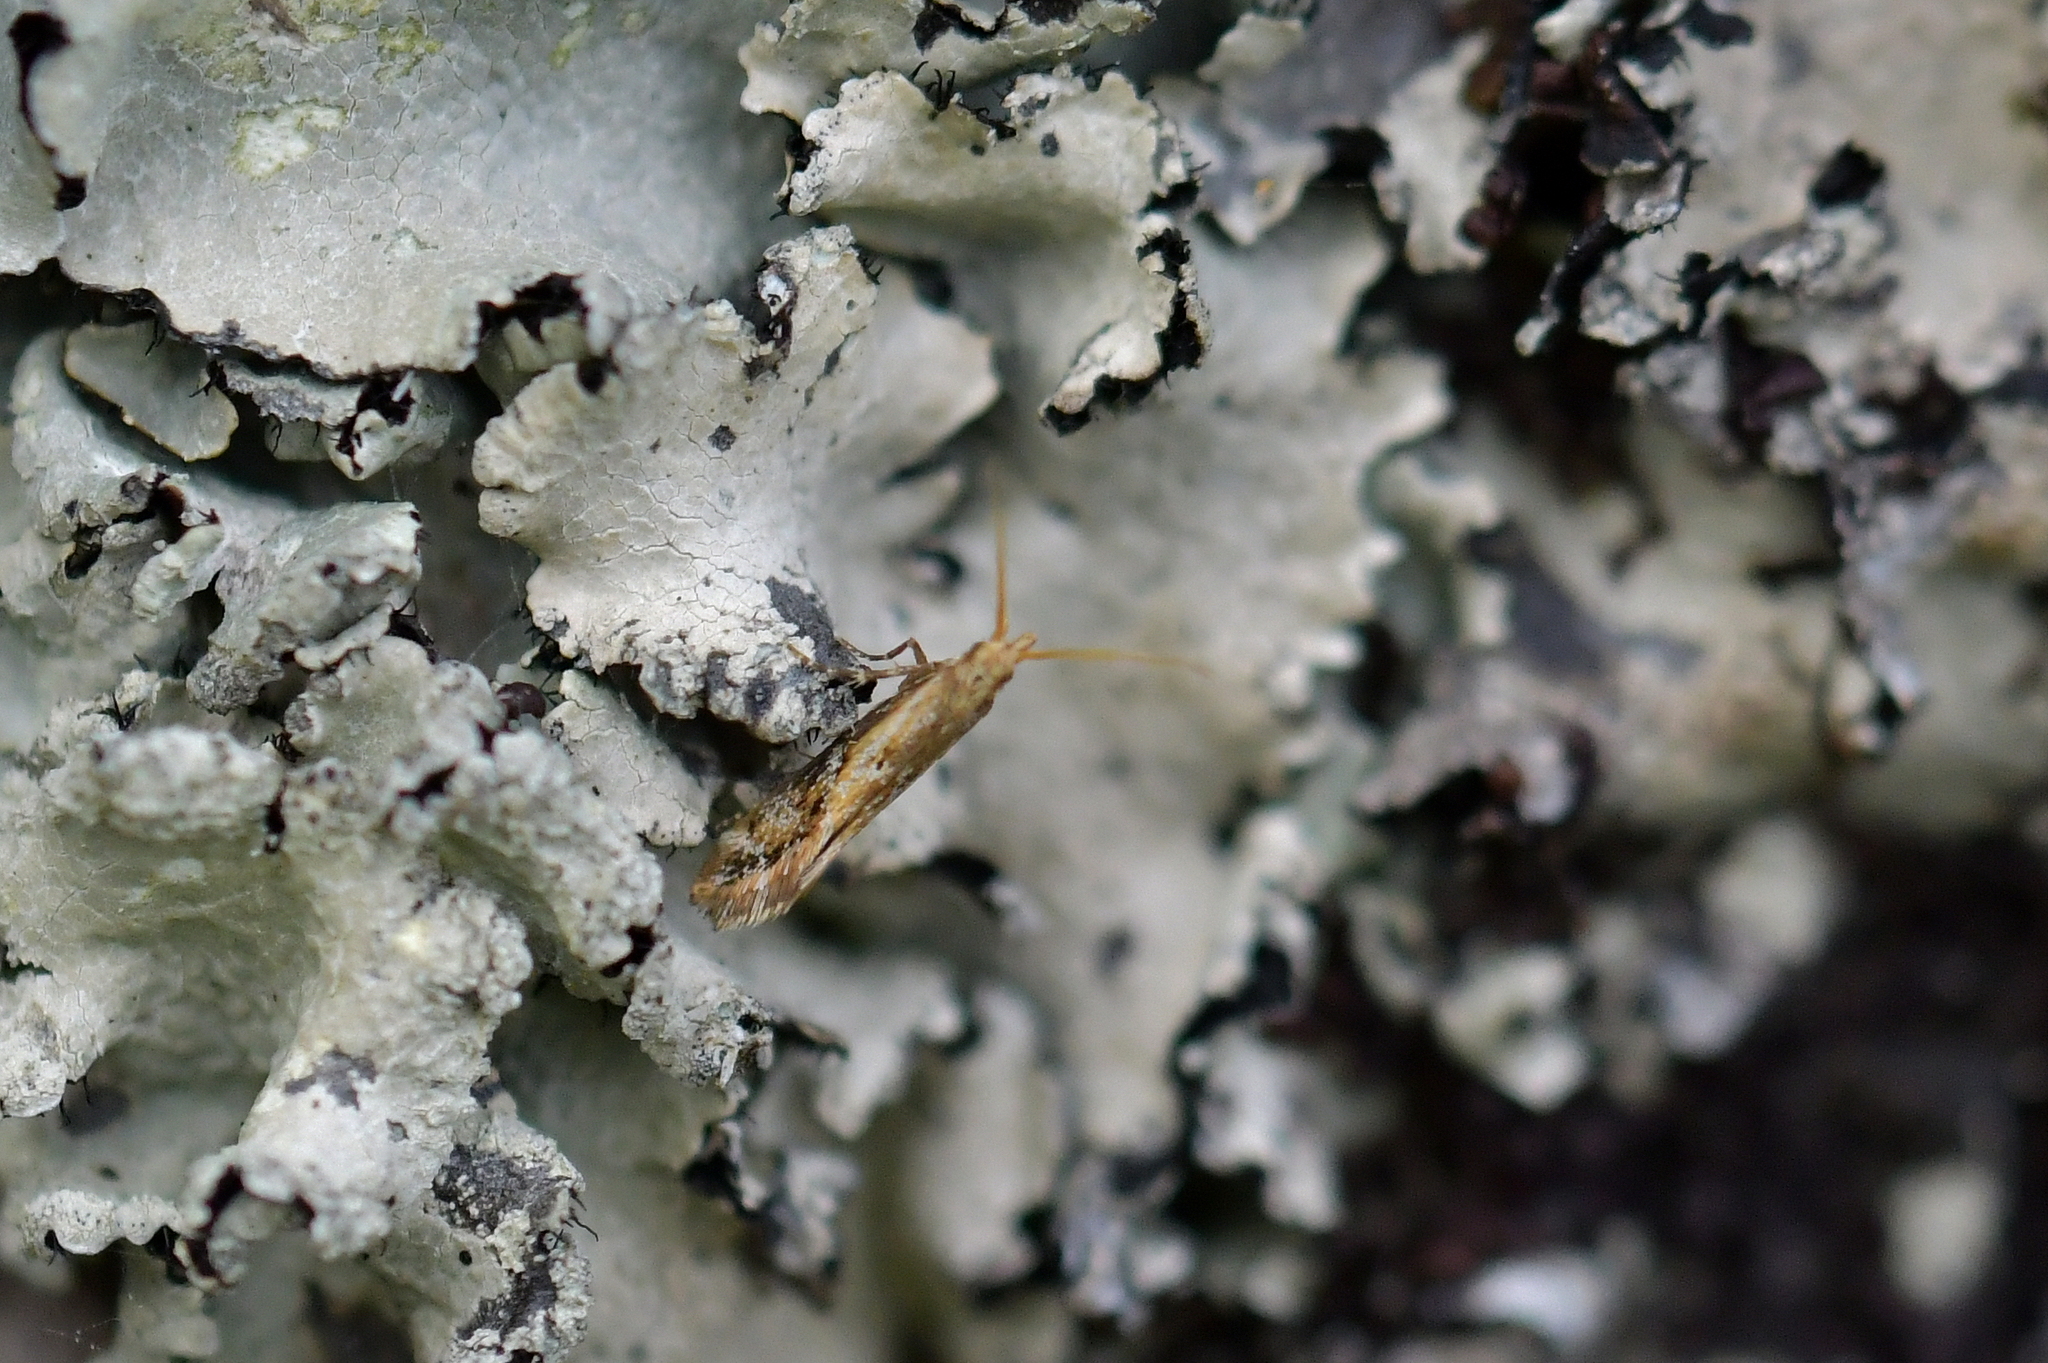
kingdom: Animalia
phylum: Arthropoda
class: Insecta
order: Lepidoptera
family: Mnesarchaeidae
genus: Mnesarchaea
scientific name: Mnesarchaea paracosma
